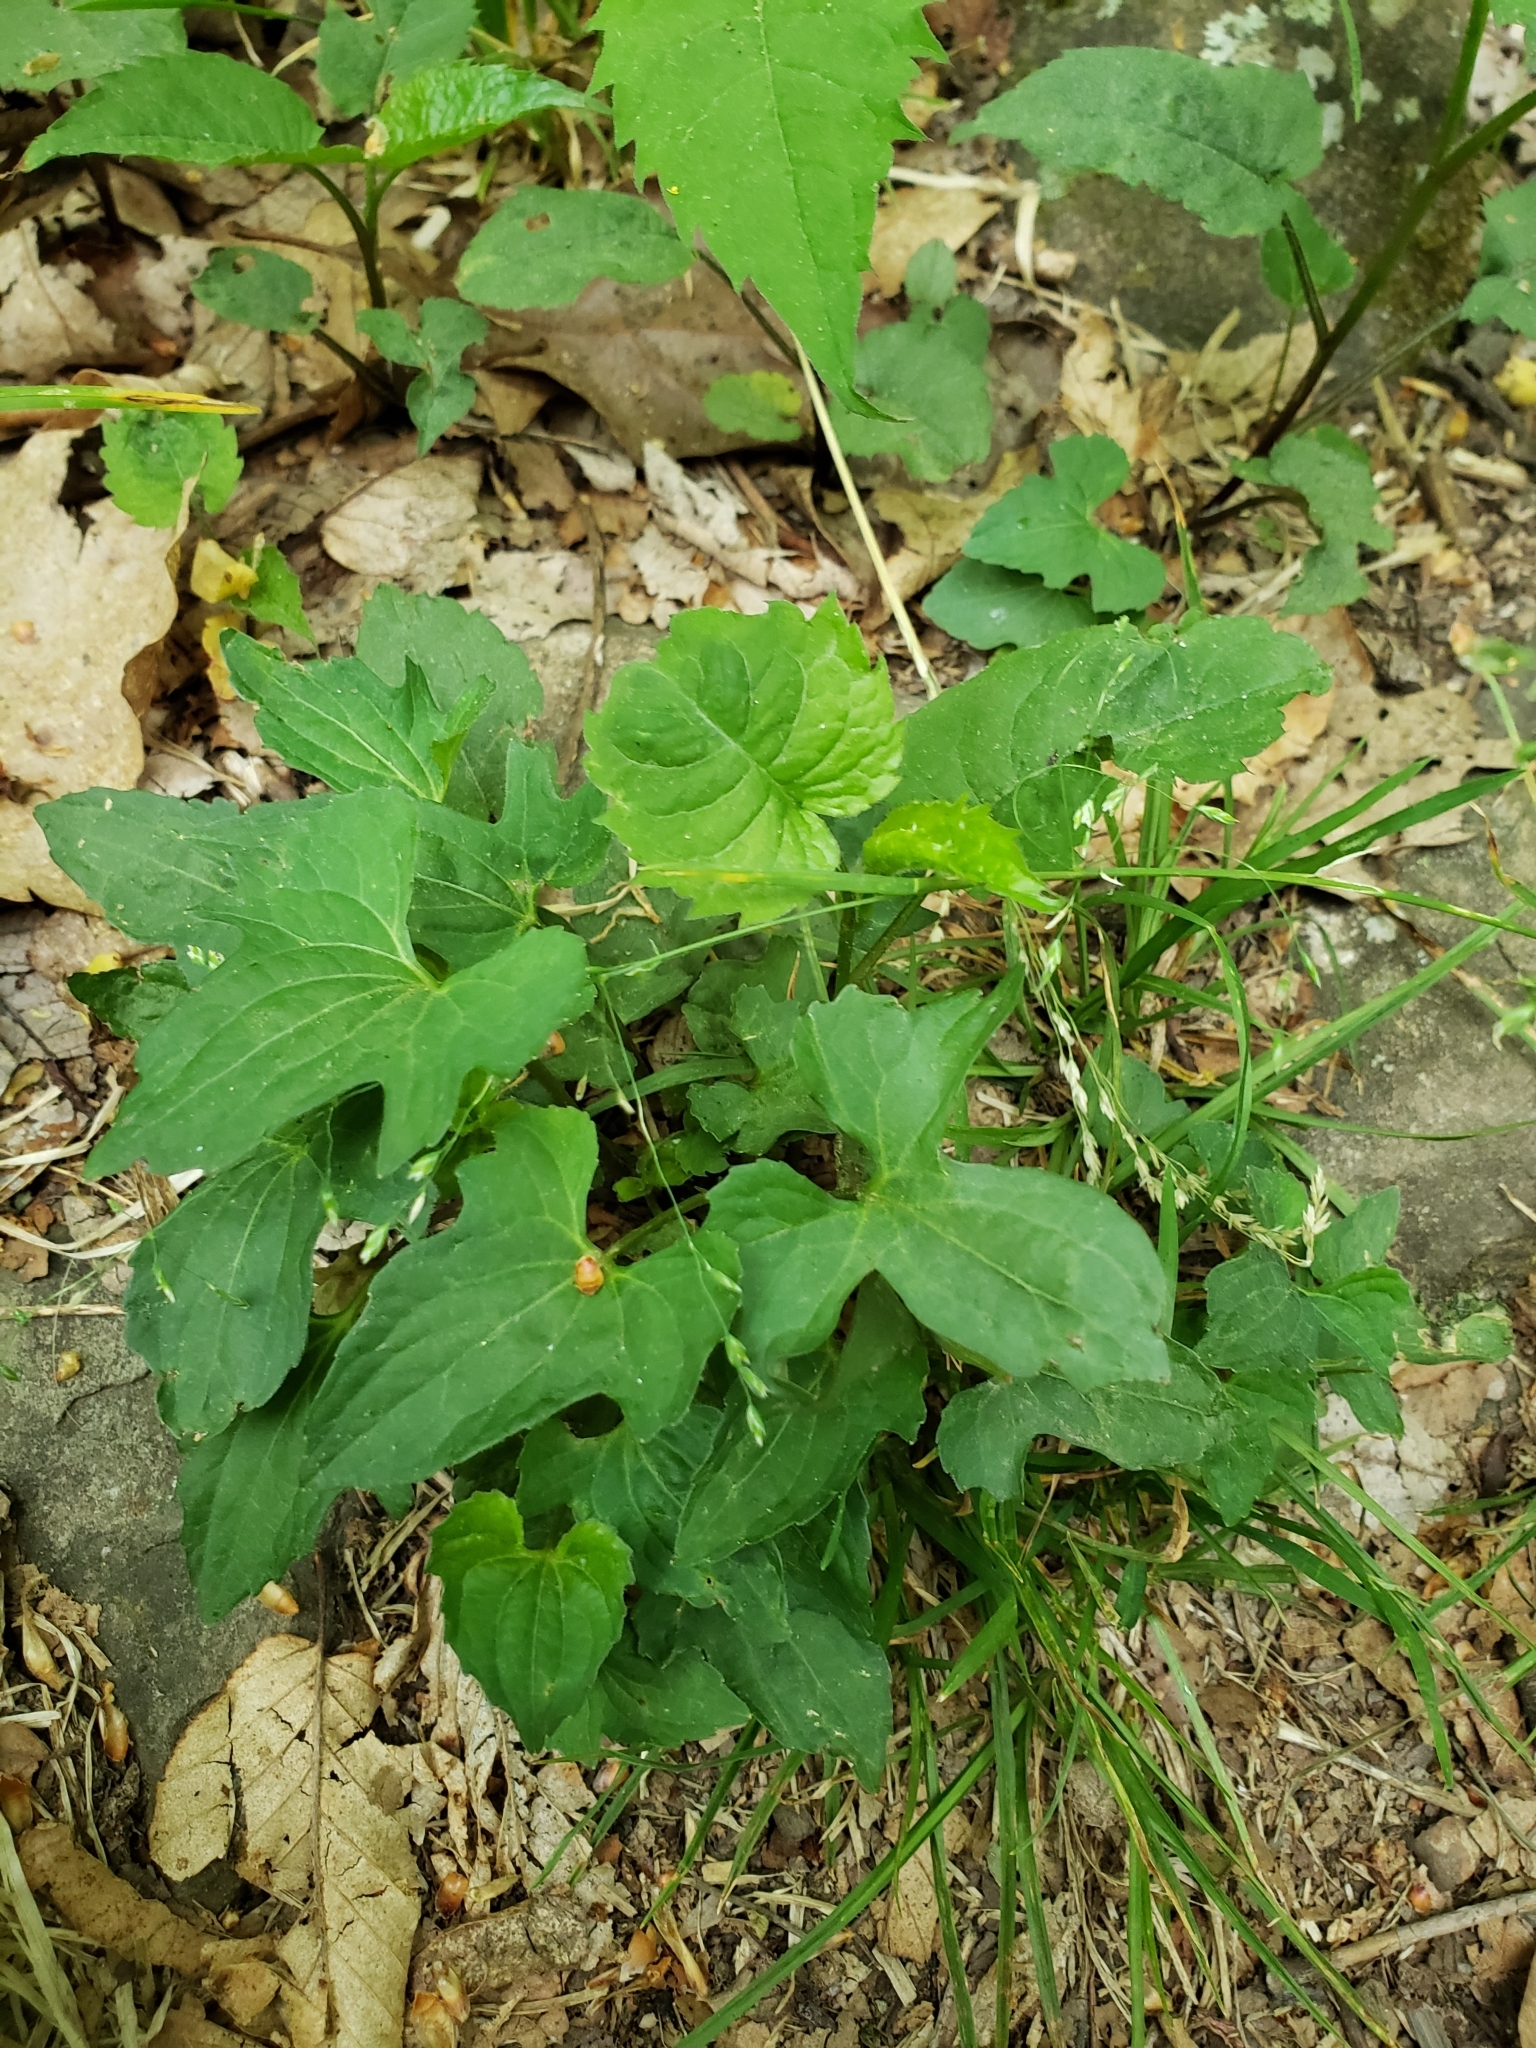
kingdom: Plantae
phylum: Tracheophyta
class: Magnoliopsida
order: Malpighiales
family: Violaceae
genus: Viola
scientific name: Viola palmata
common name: Early blue violet
